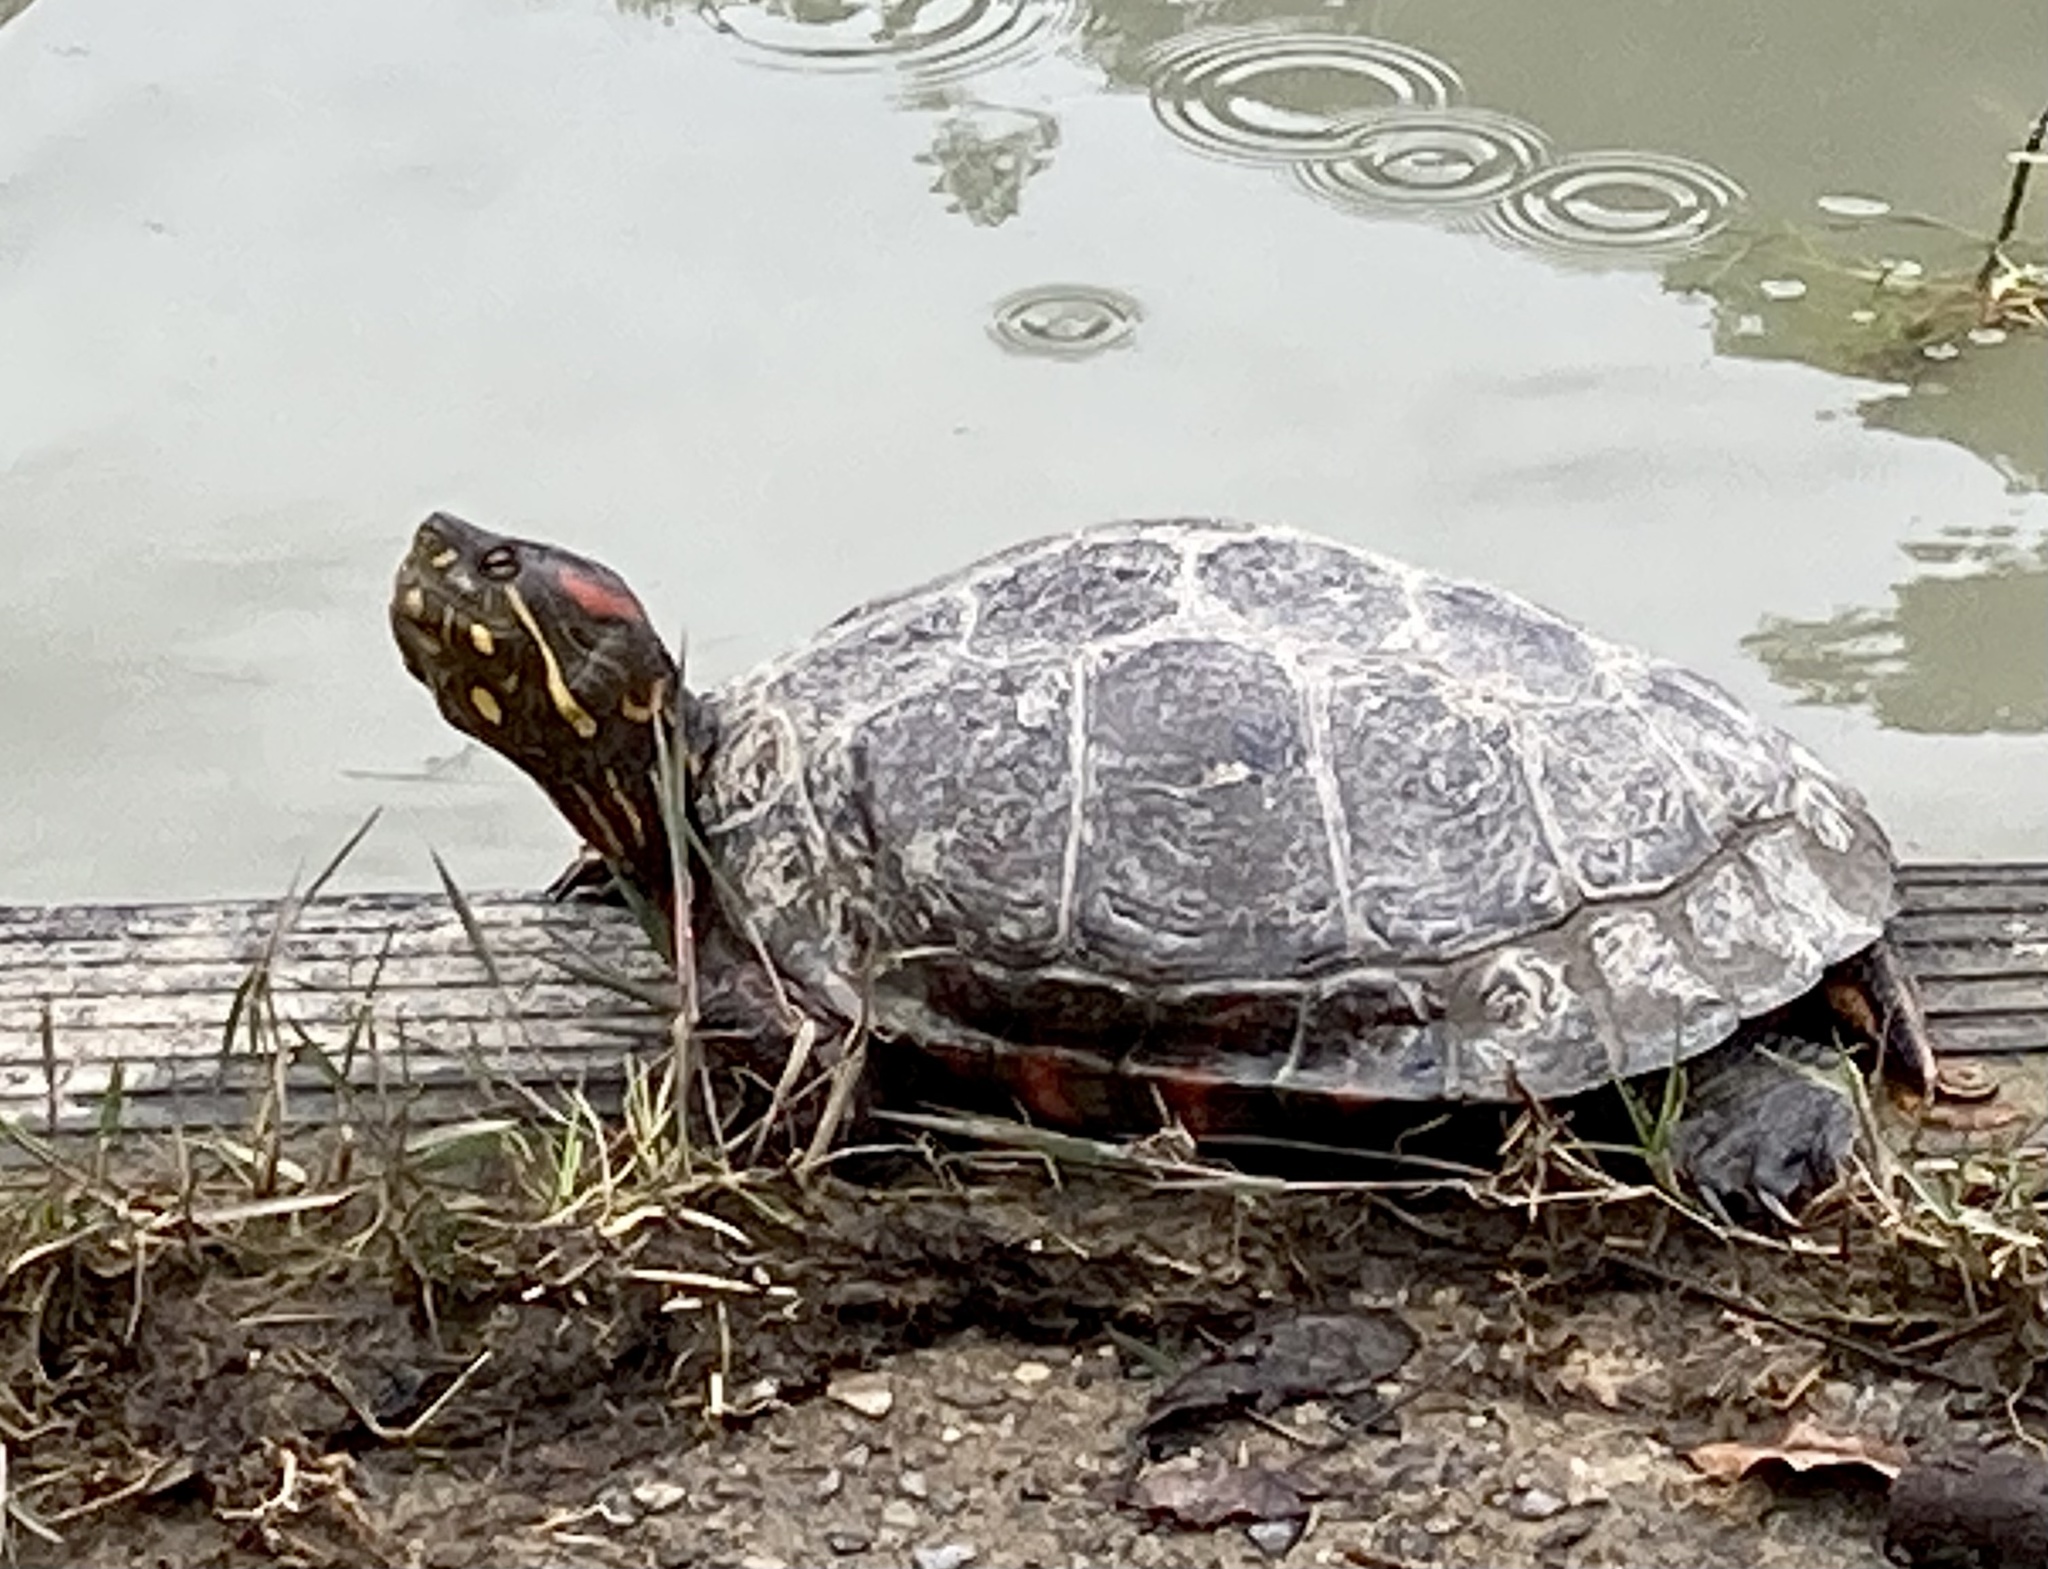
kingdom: Animalia
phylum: Chordata
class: Testudines
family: Emydidae
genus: Trachemys
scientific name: Trachemys callirostris
